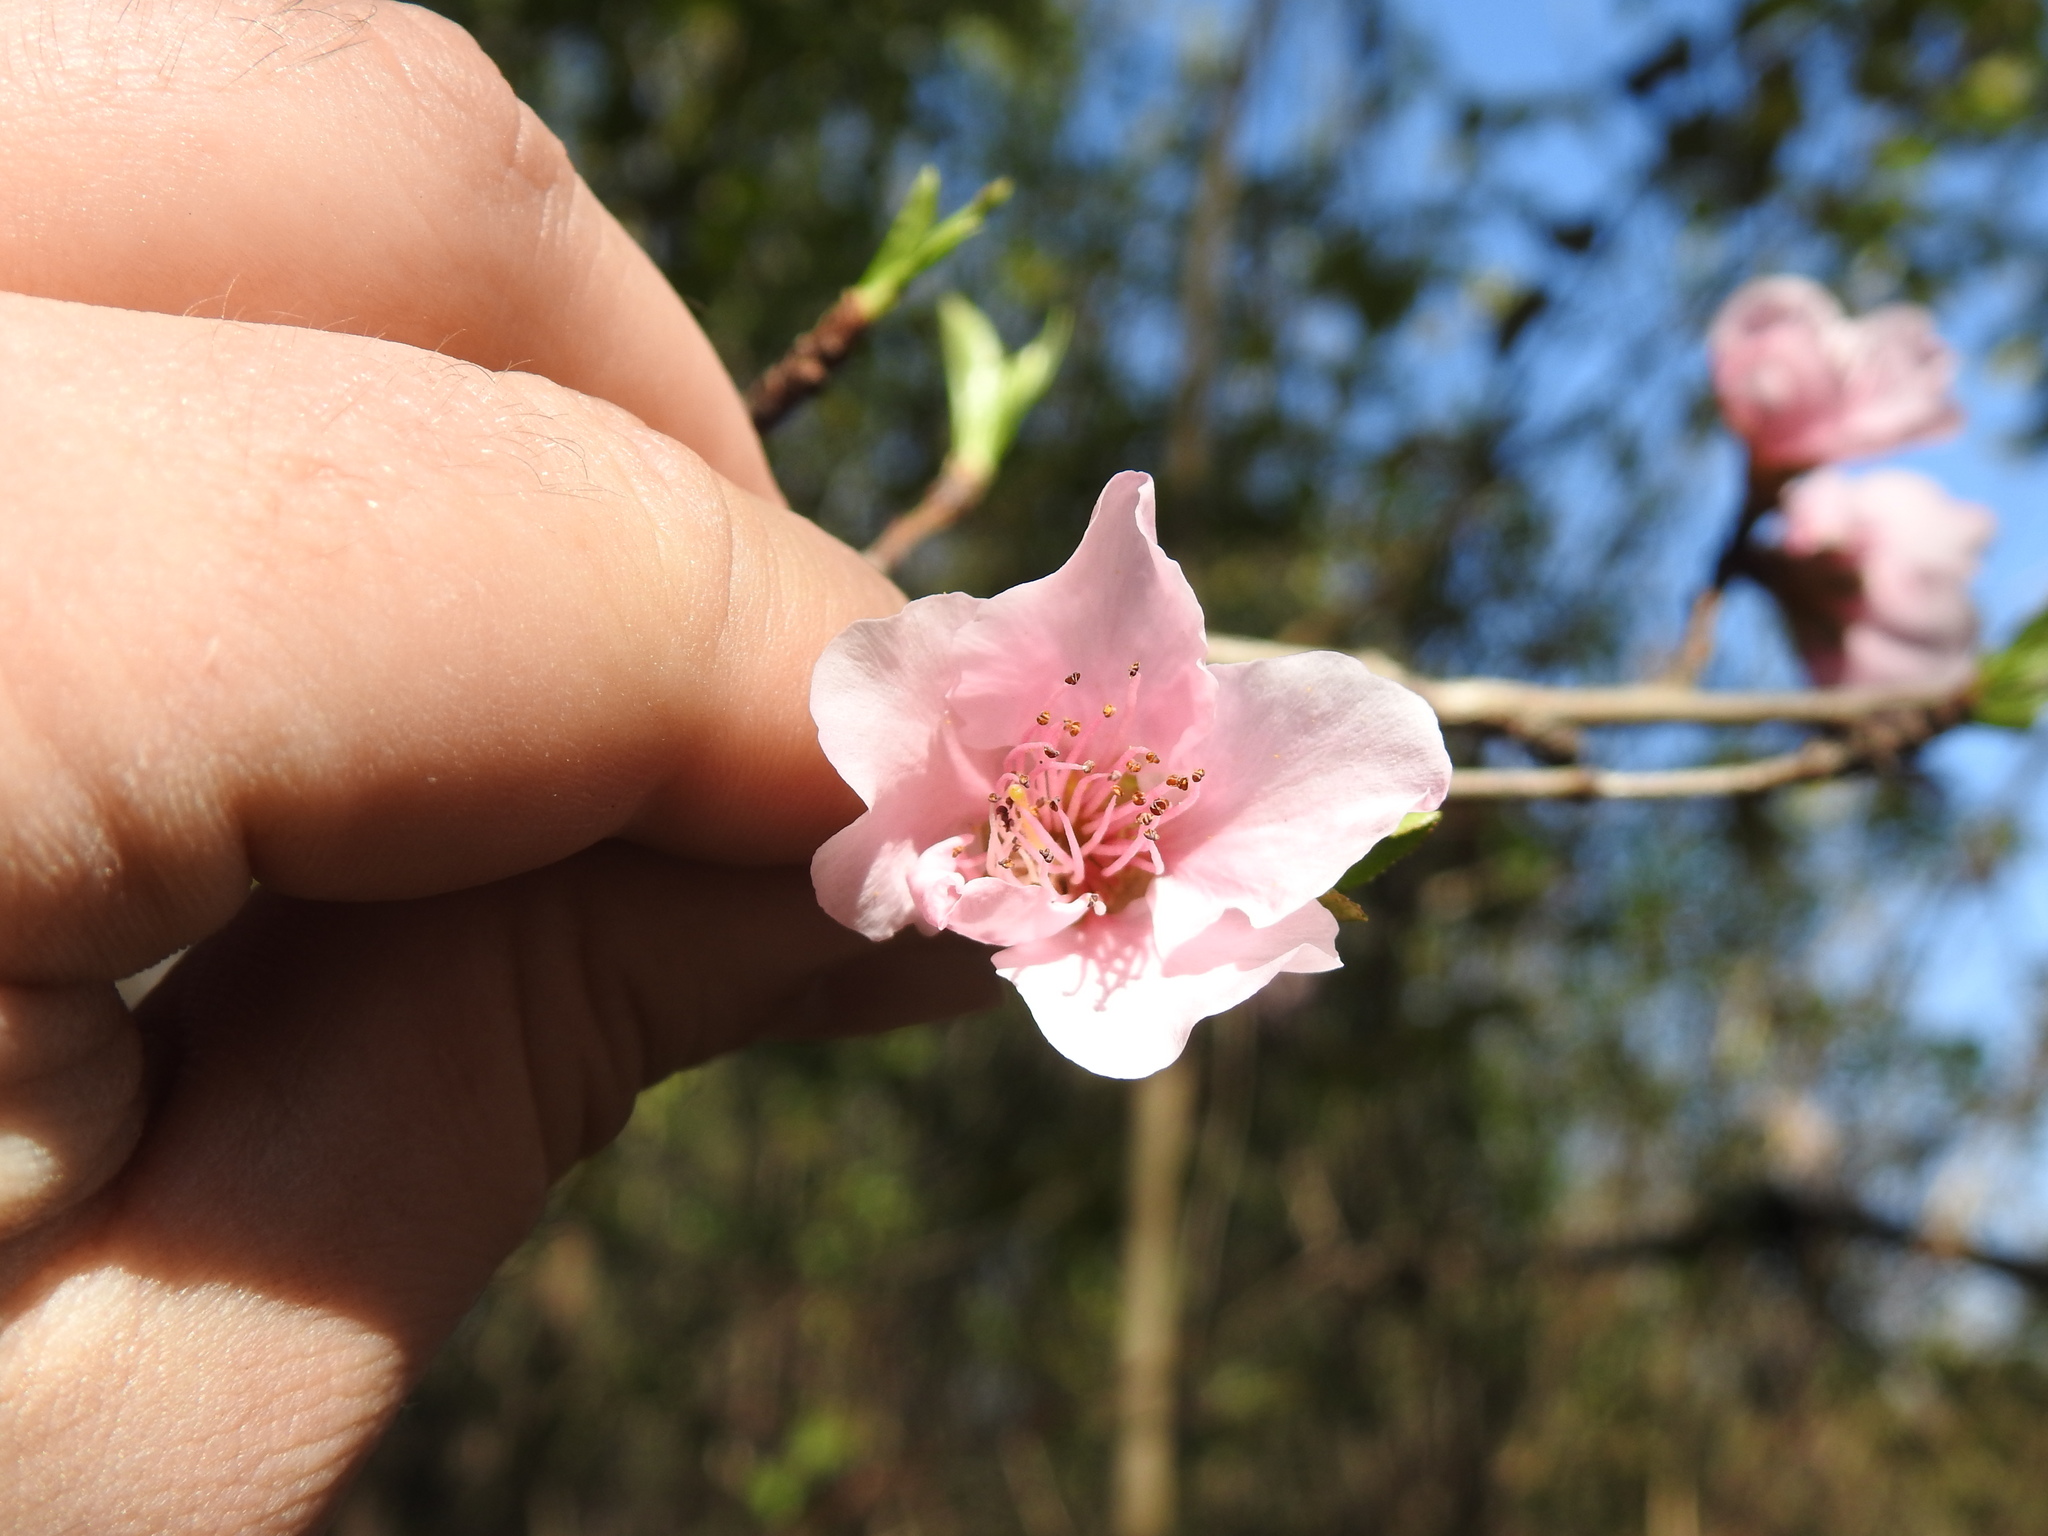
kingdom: Plantae
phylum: Tracheophyta
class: Magnoliopsida
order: Rosales
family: Rosaceae
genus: Prunus
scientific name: Prunus persica
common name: Peach
